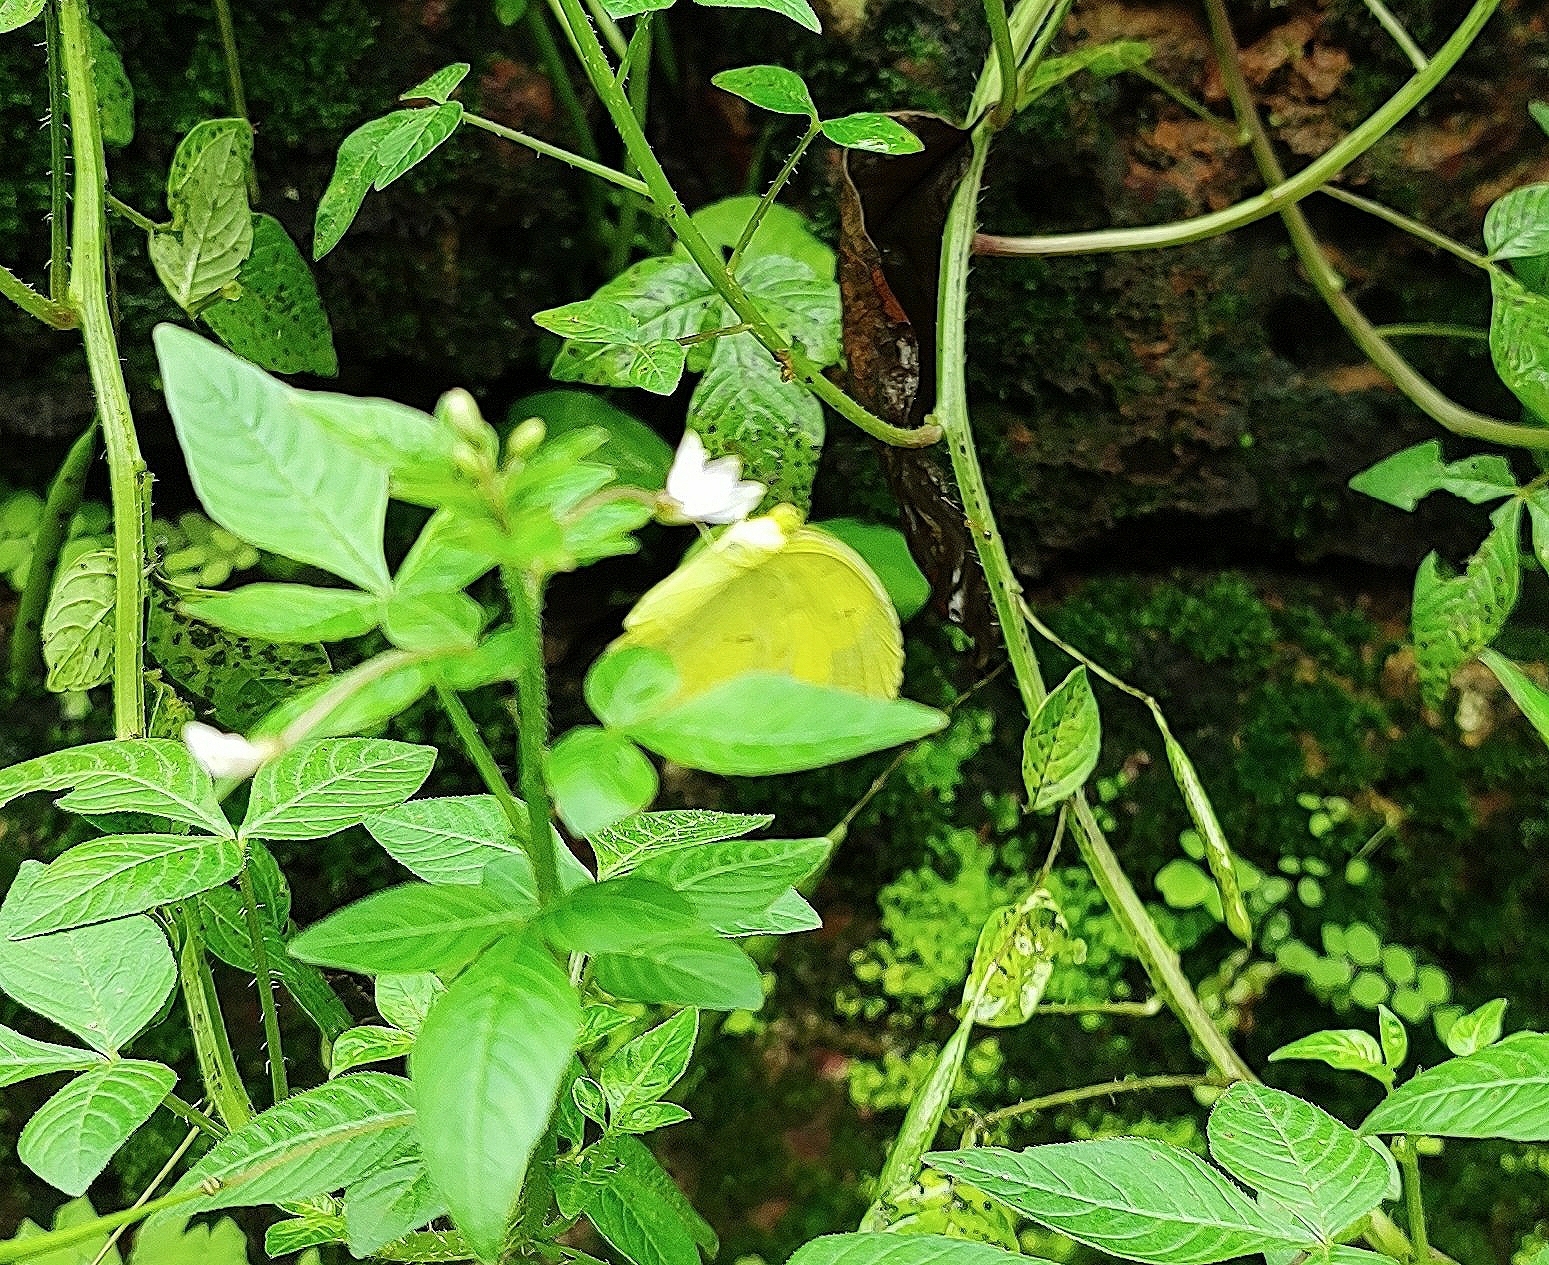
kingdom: Animalia
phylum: Arthropoda
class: Insecta
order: Lepidoptera
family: Pieridae
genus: Eurema
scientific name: Eurema hecabe
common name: Pale grass yellow
